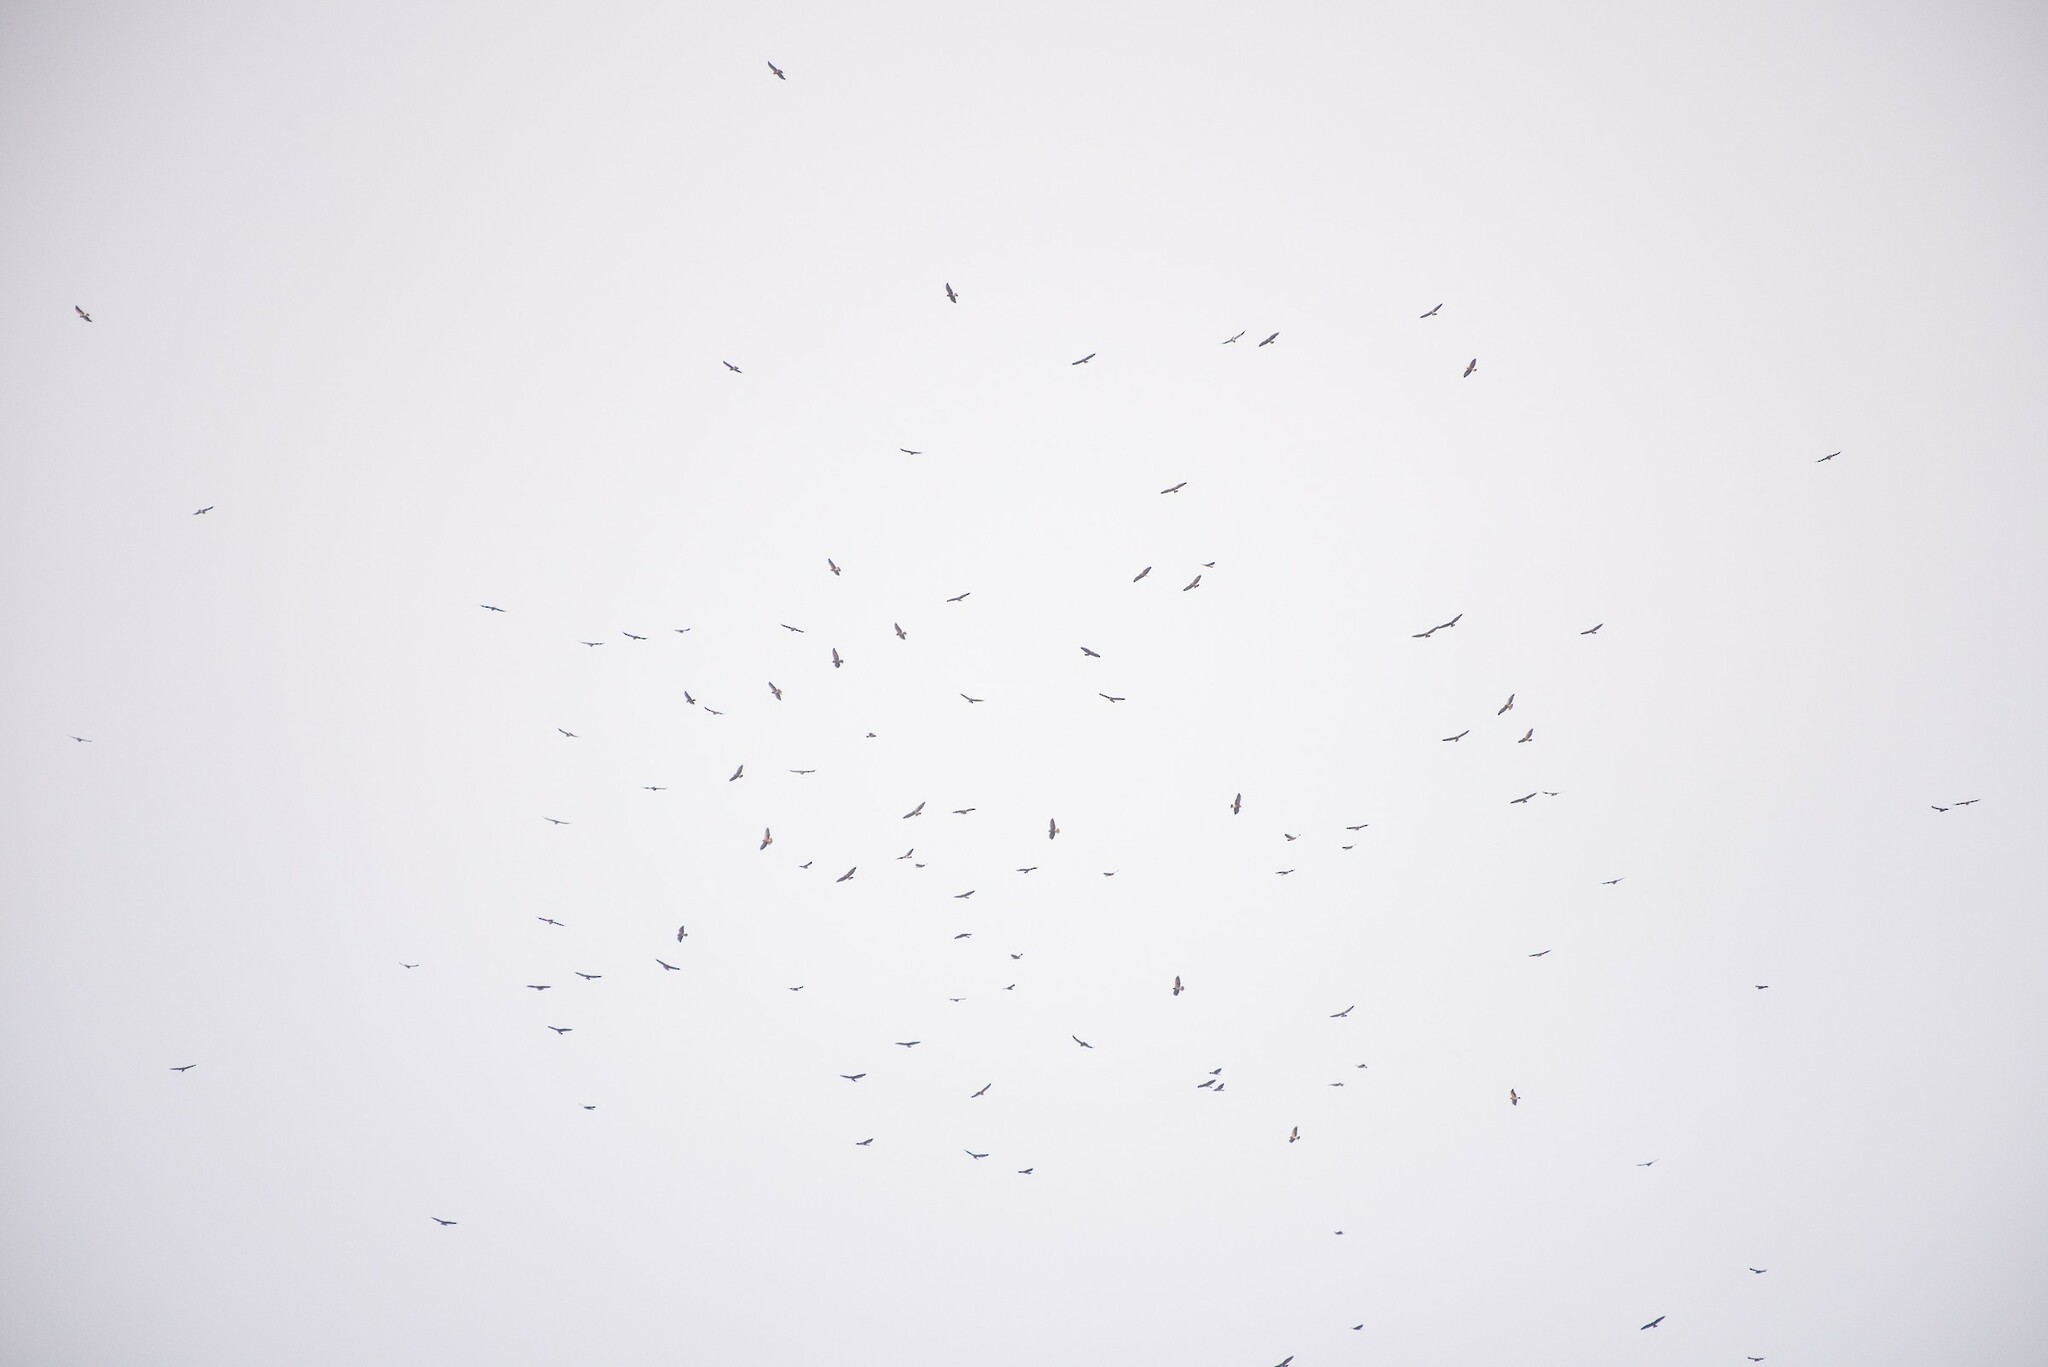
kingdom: Animalia
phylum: Chordata
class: Aves
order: Accipitriformes
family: Accipitridae
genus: Buteo
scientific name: Buteo swainsoni
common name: Swainson's hawk
